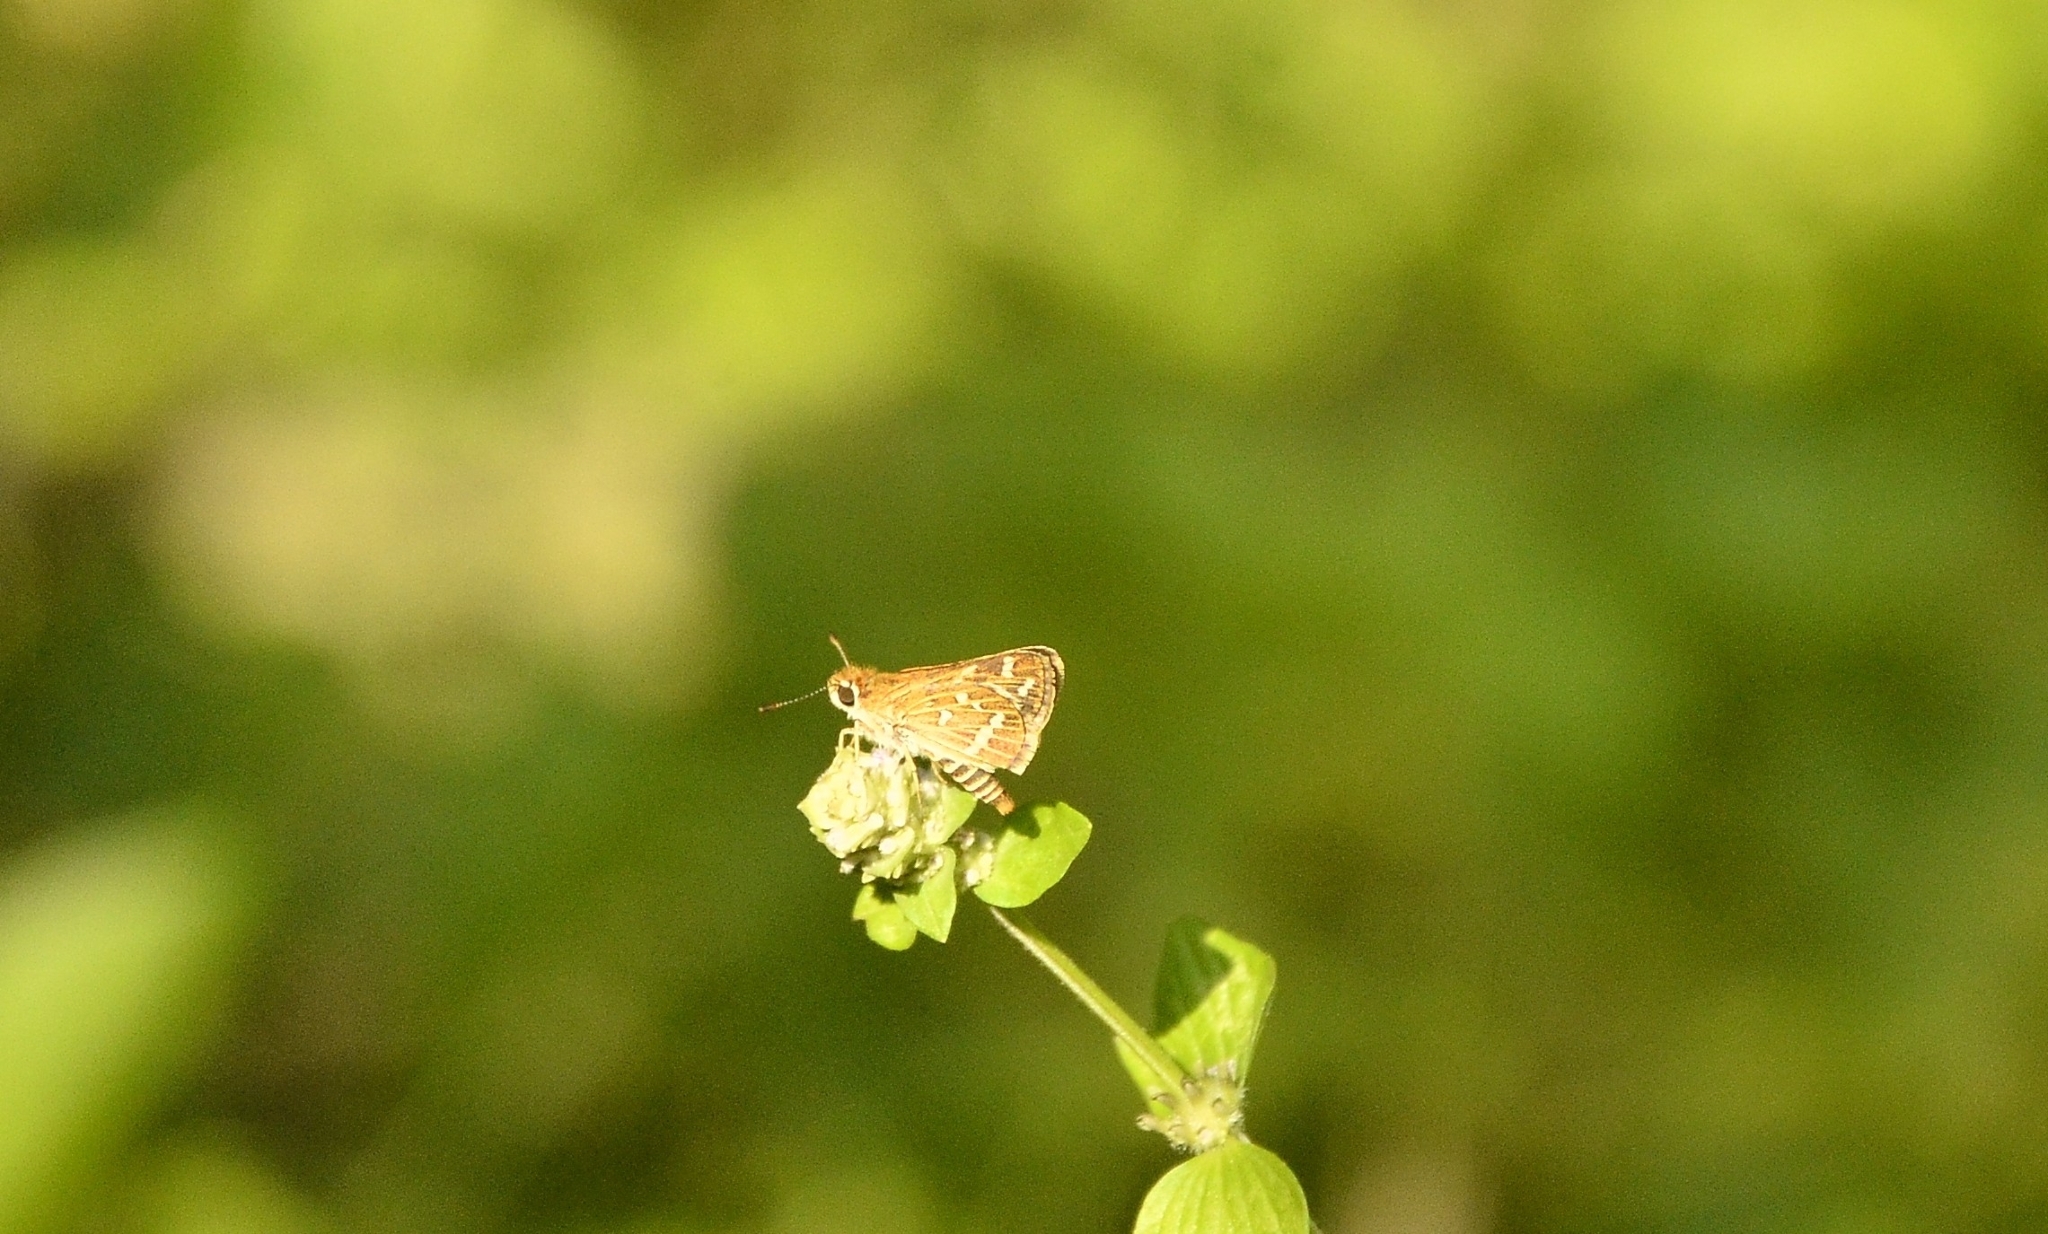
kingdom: Animalia
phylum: Arthropoda
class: Insecta
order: Lepidoptera
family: Hesperiidae
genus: Taractrocera
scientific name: Taractrocera maevius
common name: Common grass-dart
